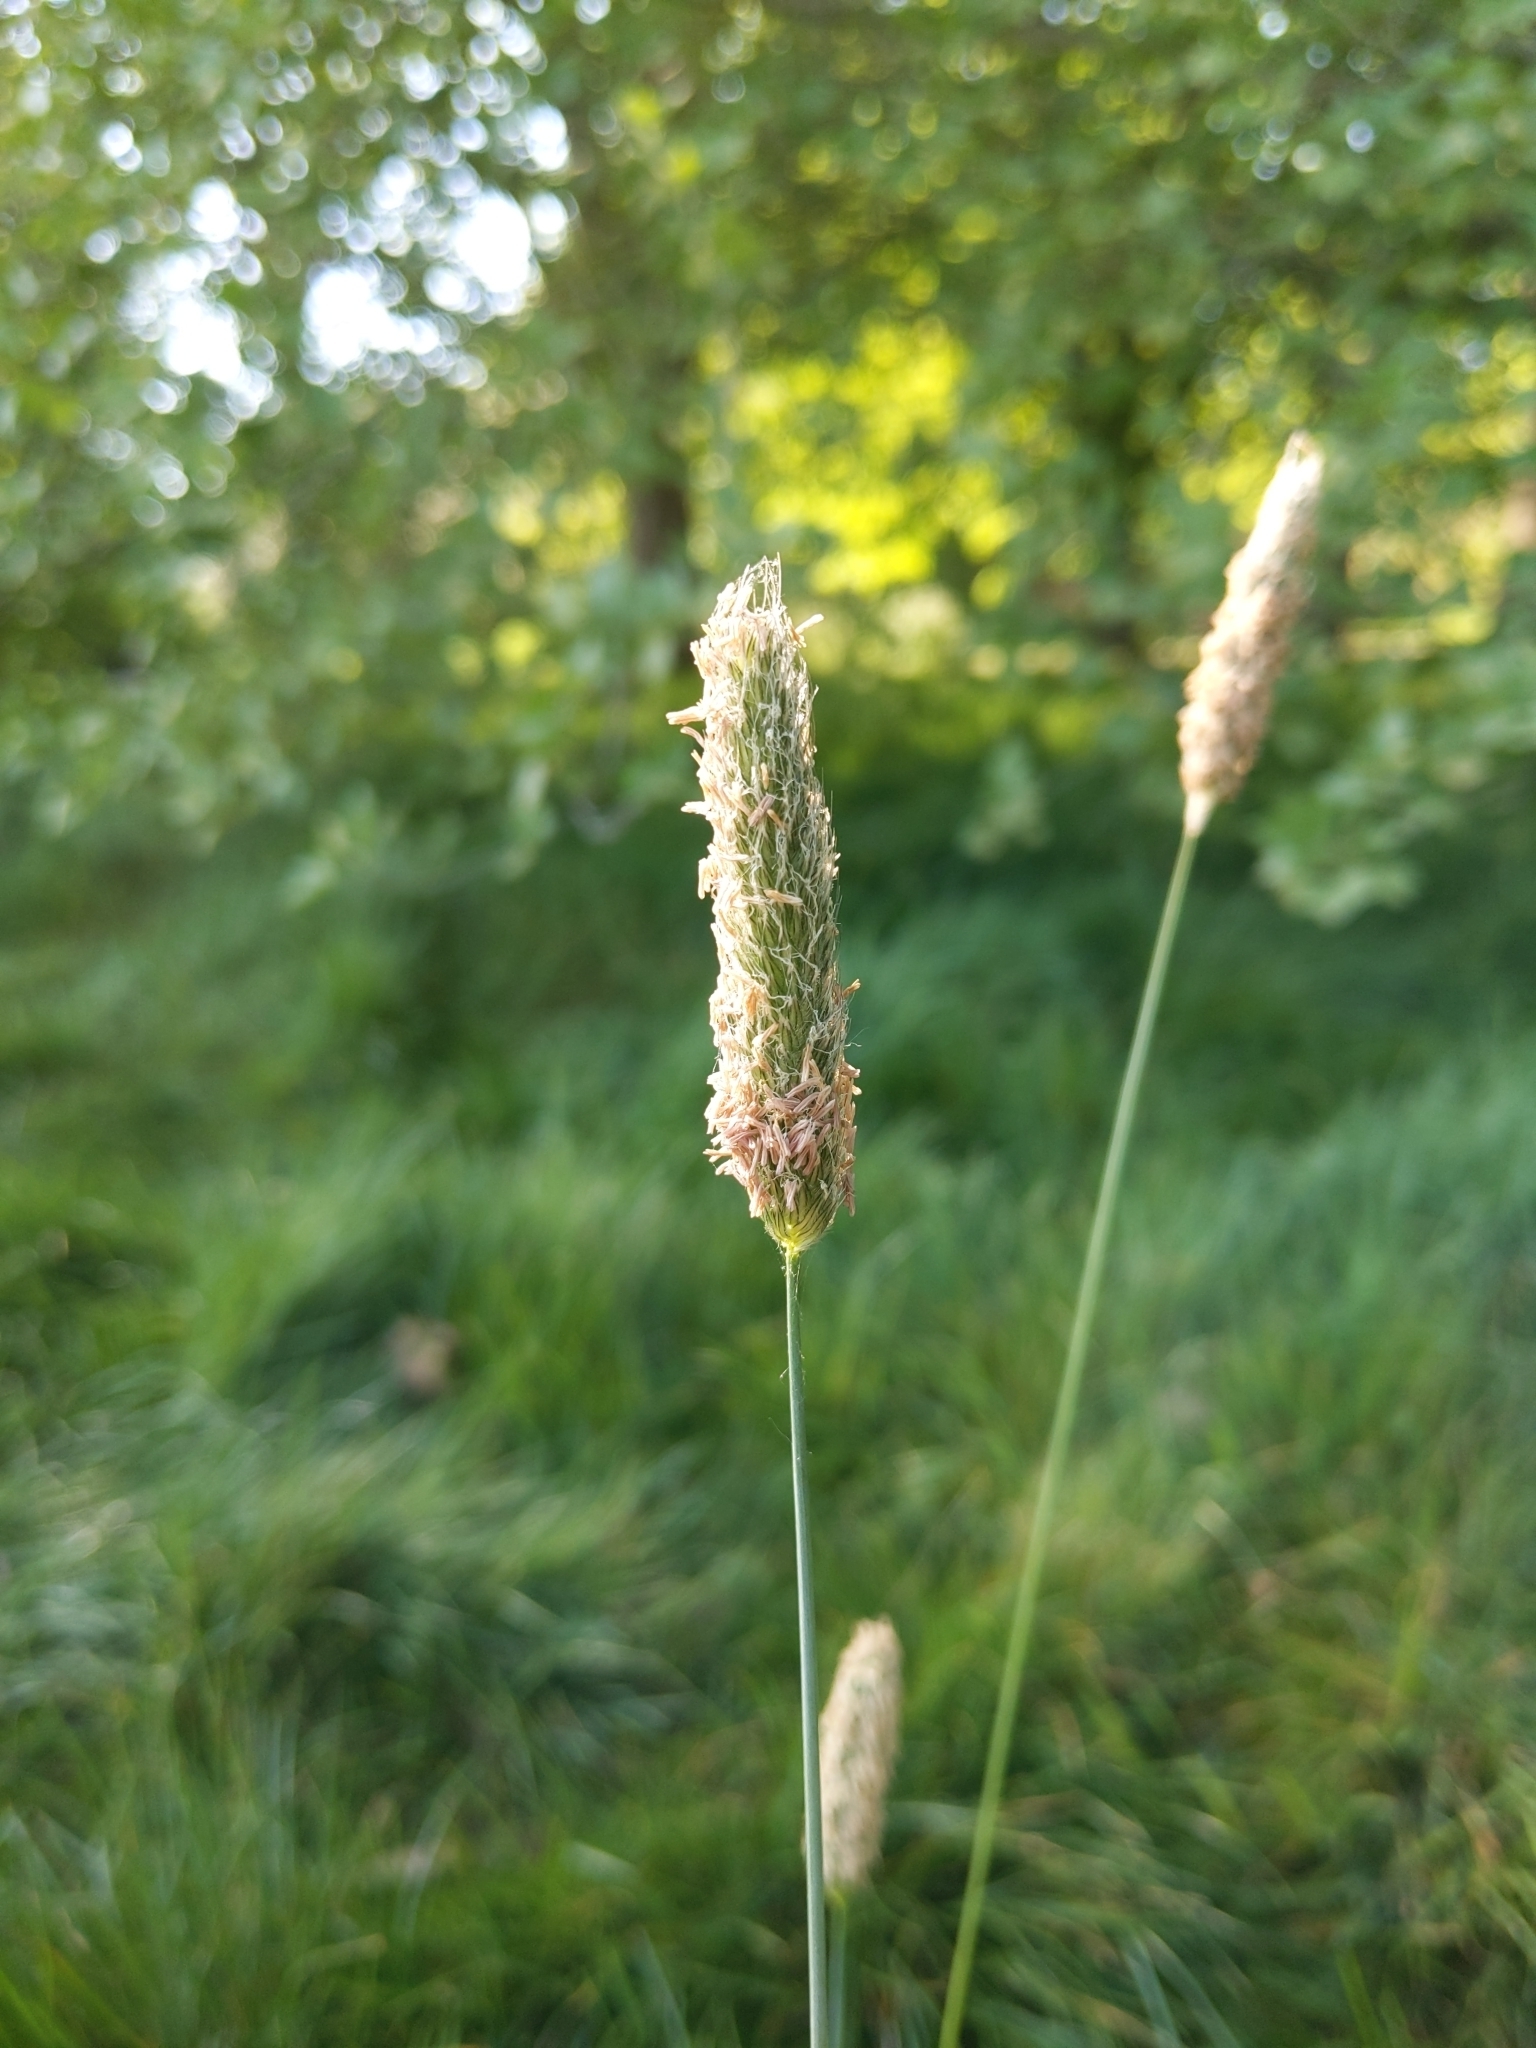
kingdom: Plantae
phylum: Tracheophyta
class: Liliopsida
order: Poales
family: Poaceae
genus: Alopecurus
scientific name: Alopecurus pratensis
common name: Meadow foxtail
